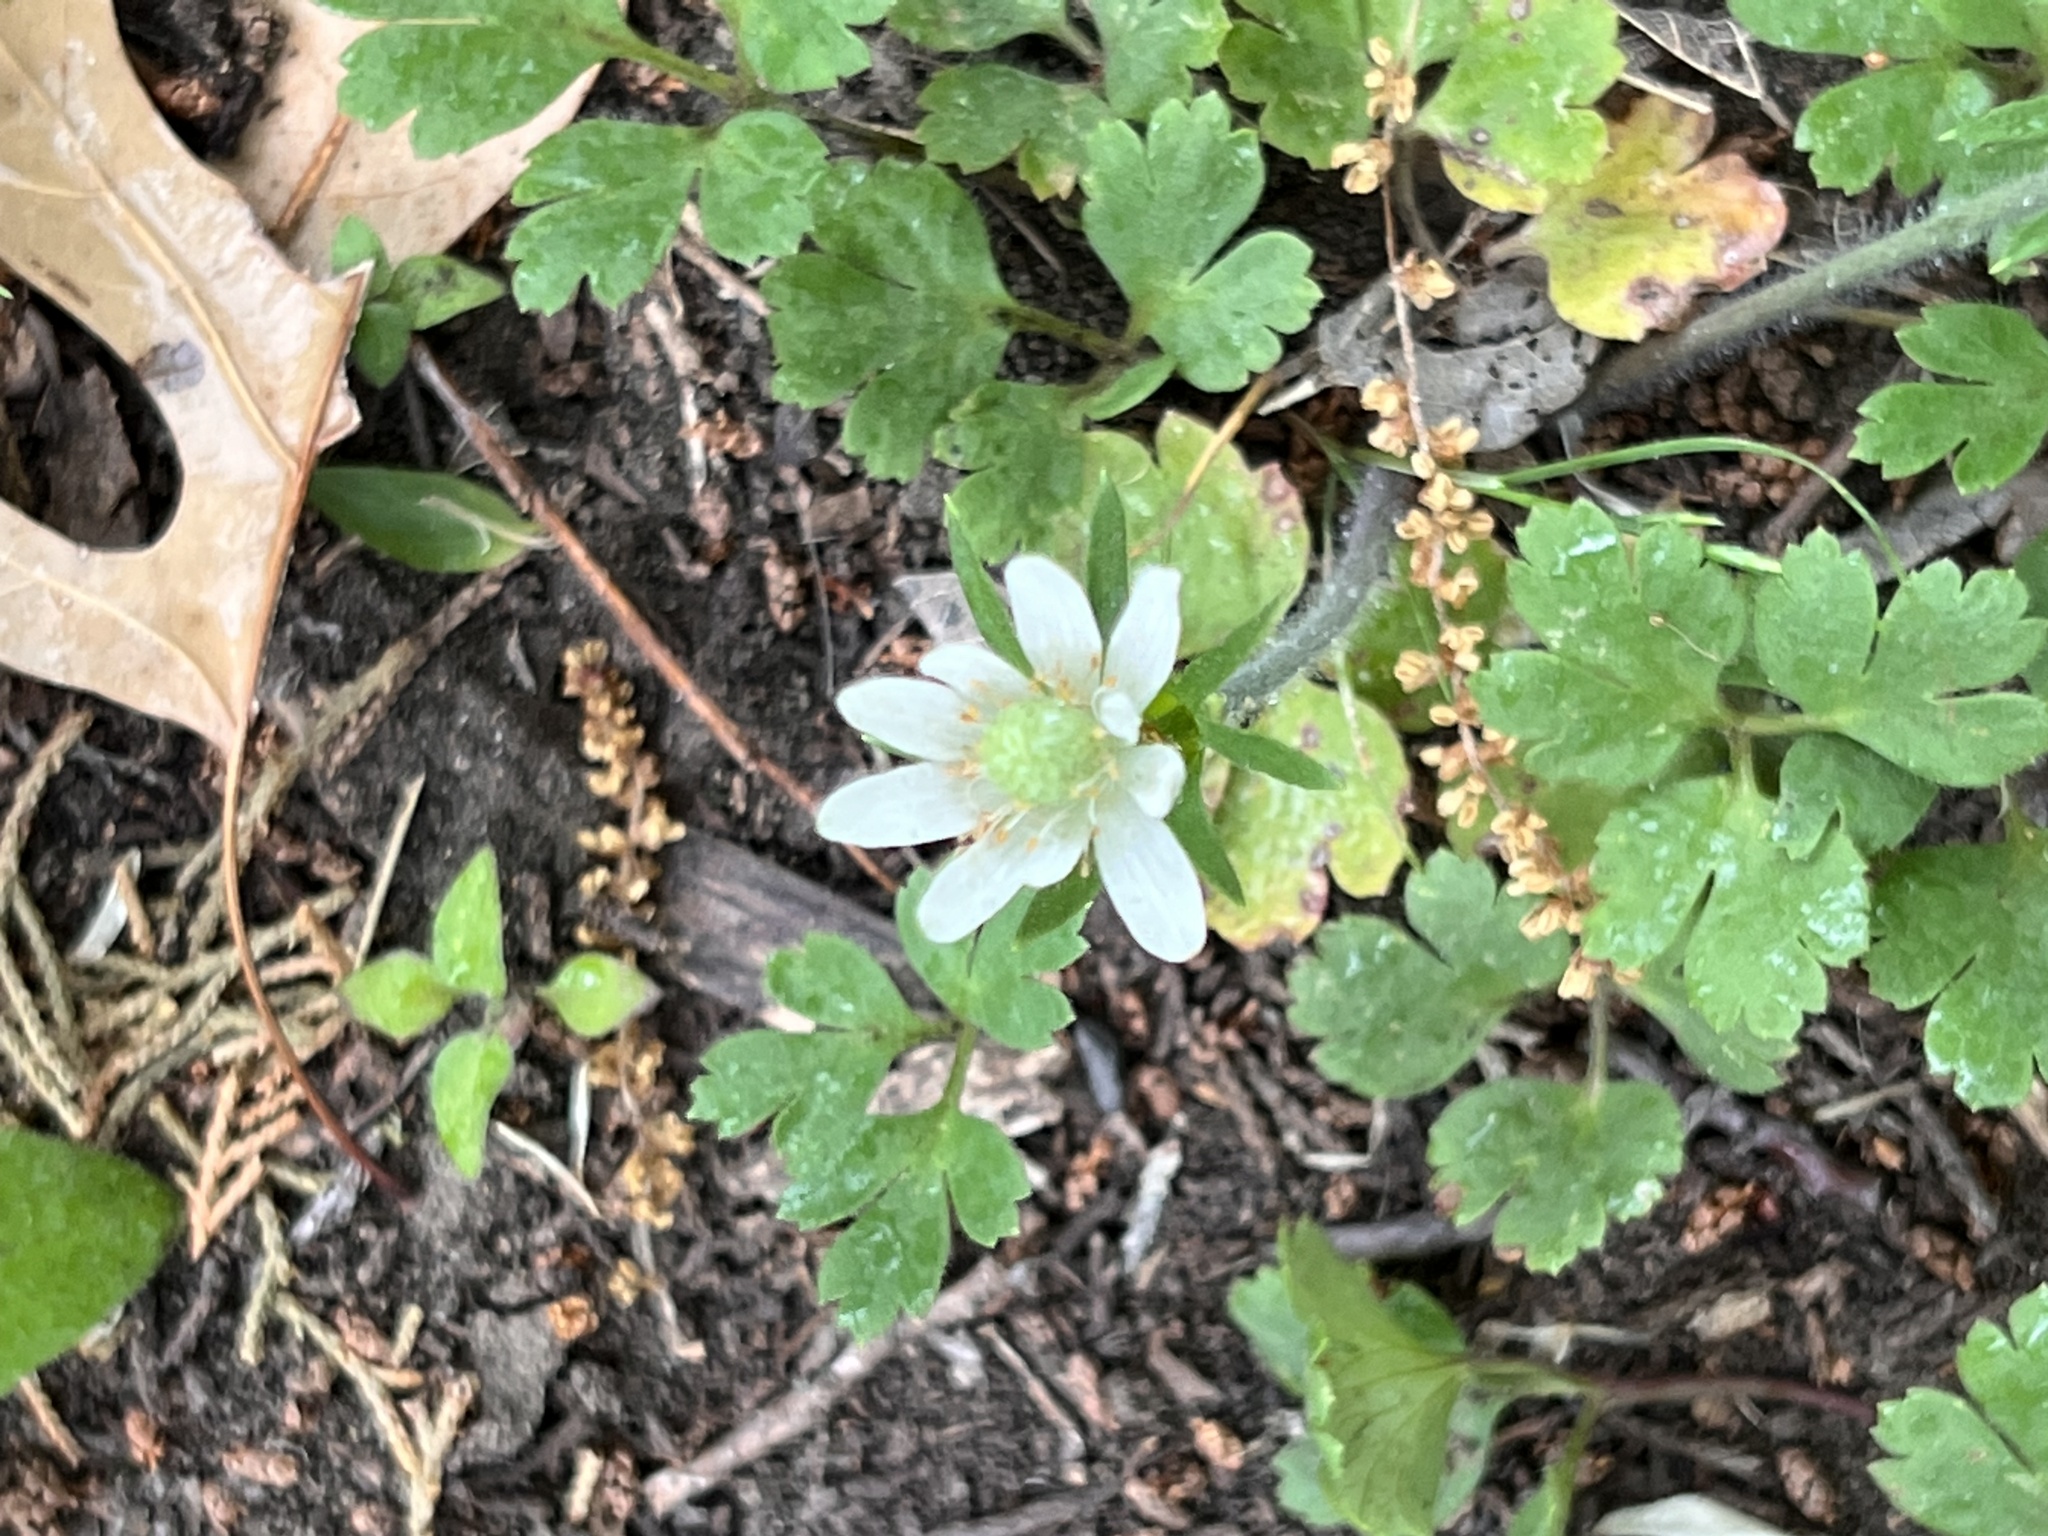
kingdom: Plantae
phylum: Tracheophyta
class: Magnoliopsida
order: Ranunculales
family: Ranunculaceae
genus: Anemone
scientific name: Anemone berlandieri
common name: Ten-petal anemone
